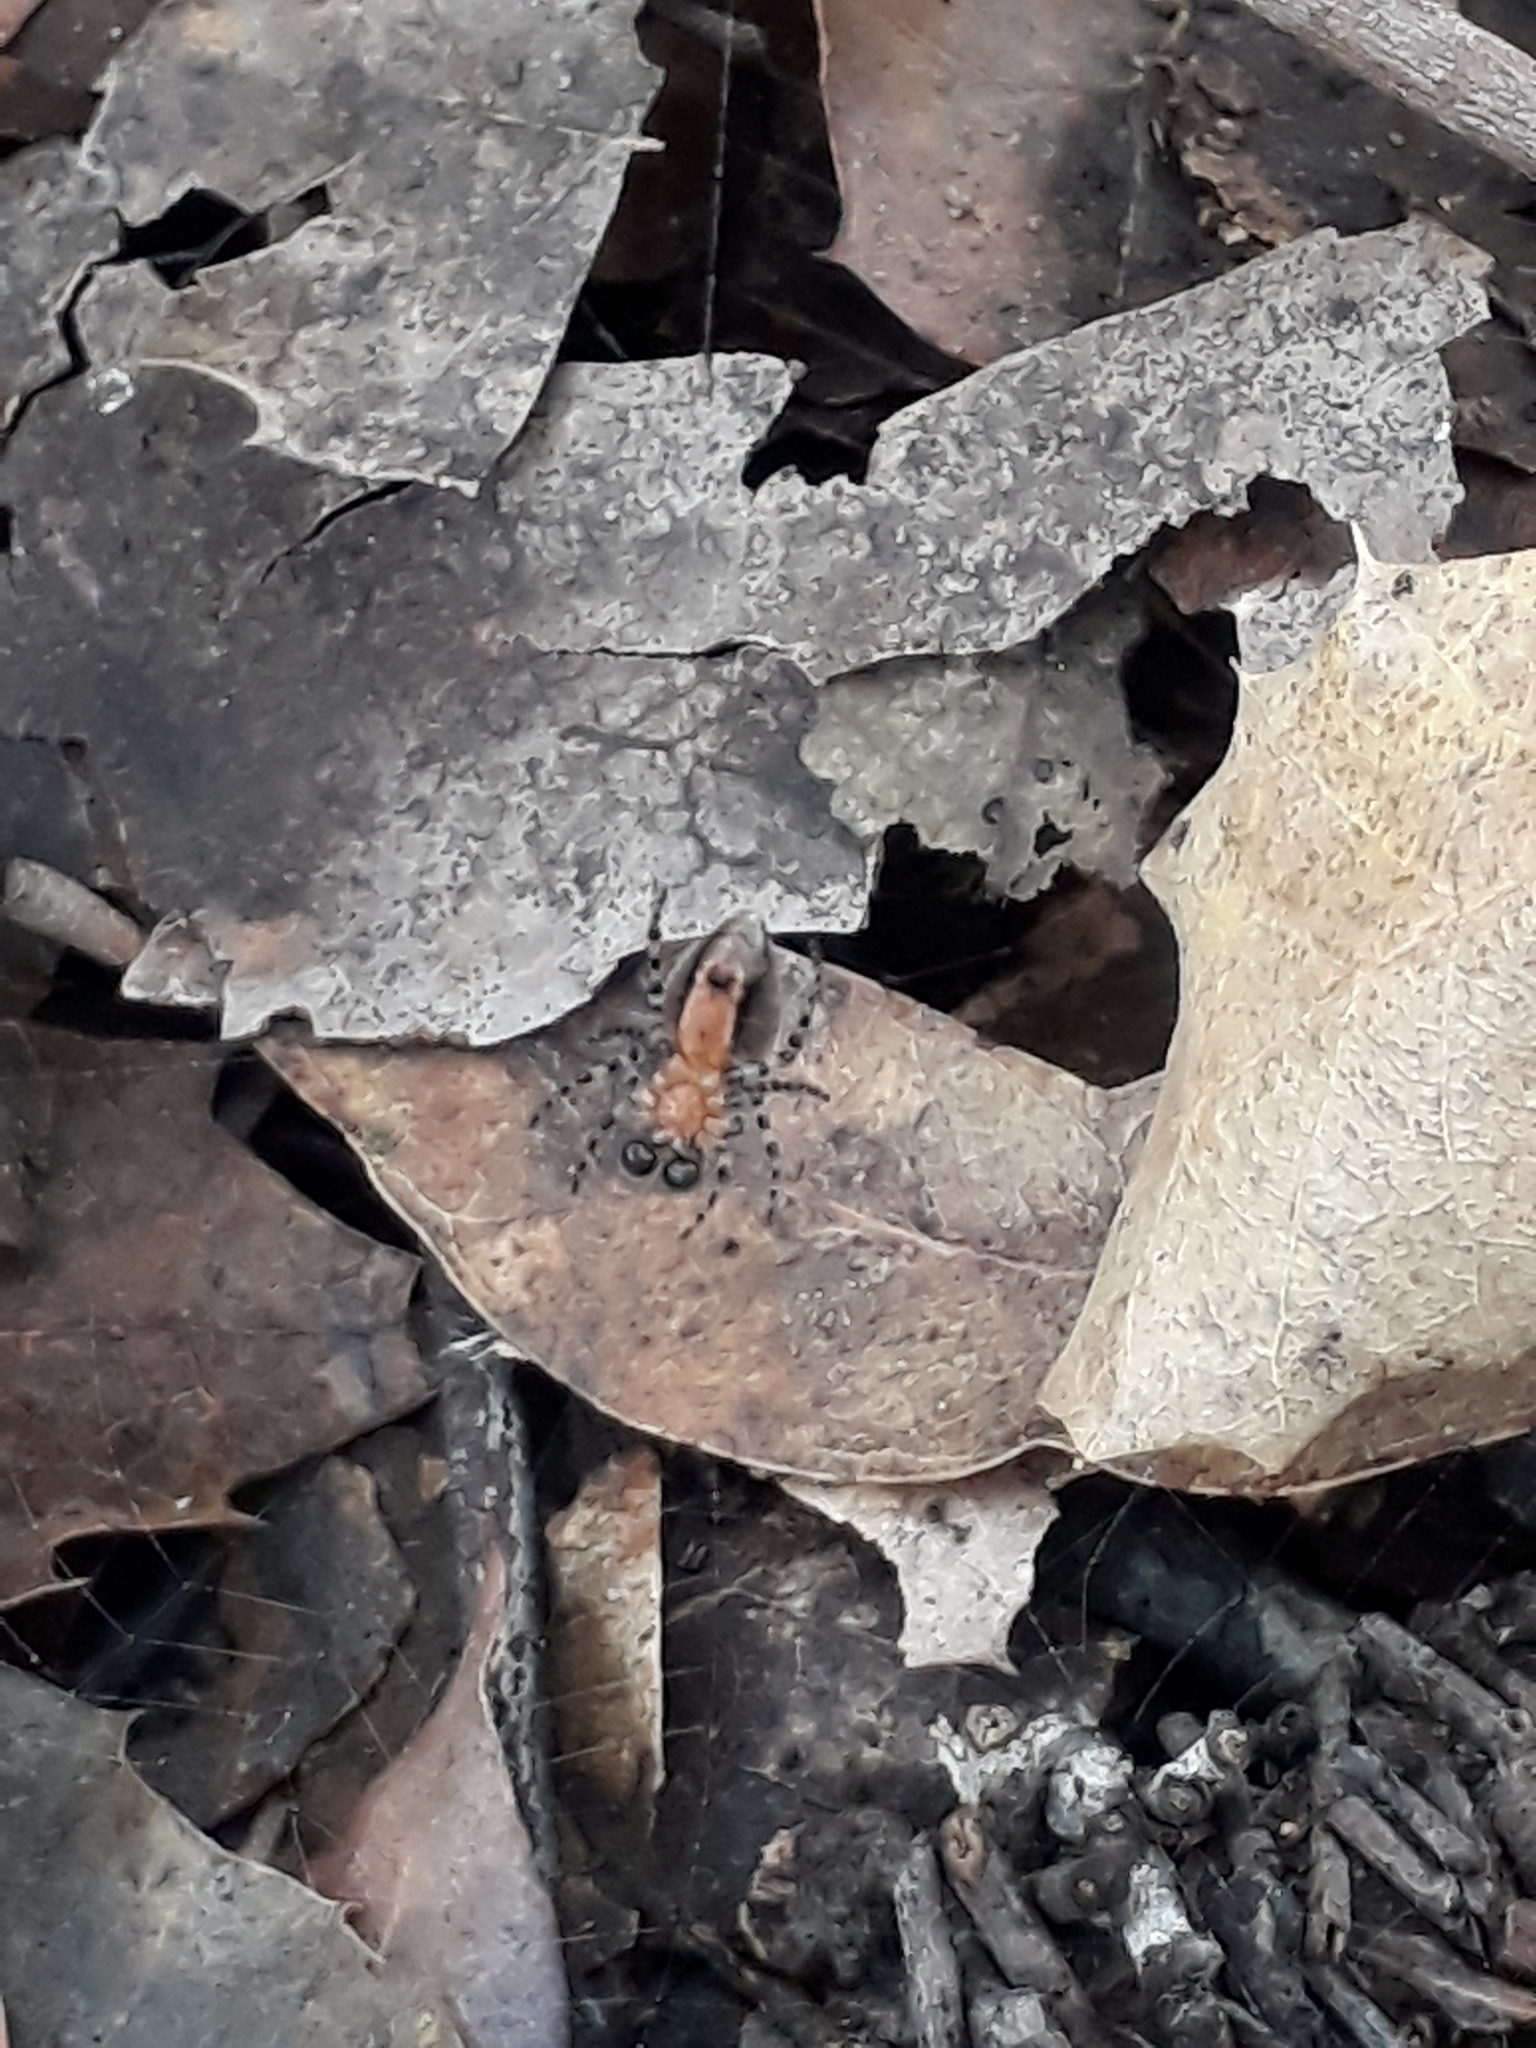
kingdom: Animalia
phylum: Arthropoda
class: Arachnida
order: Araneae
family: Araneidae
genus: Alpaida
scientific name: Alpaida gallardoi
